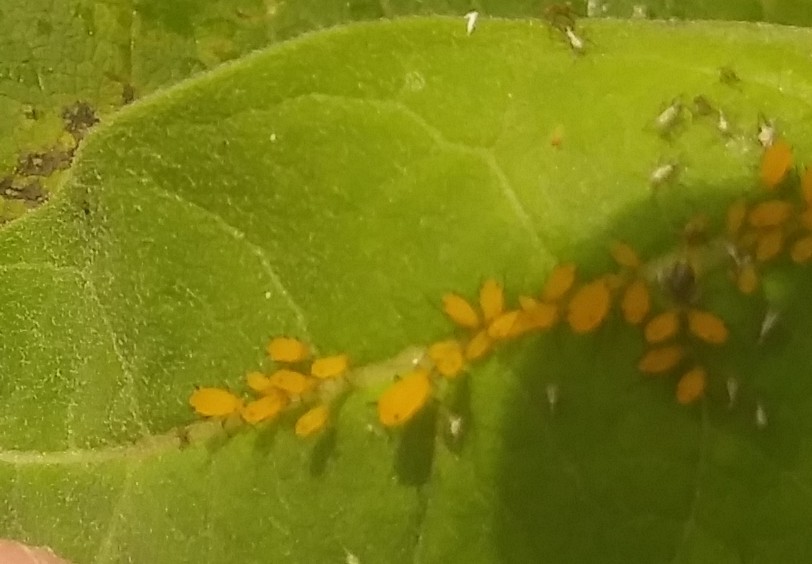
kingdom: Animalia
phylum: Arthropoda
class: Insecta
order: Hemiptera
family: Aphididae
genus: Aphis
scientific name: Aphis nerii
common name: Oleander aphid
